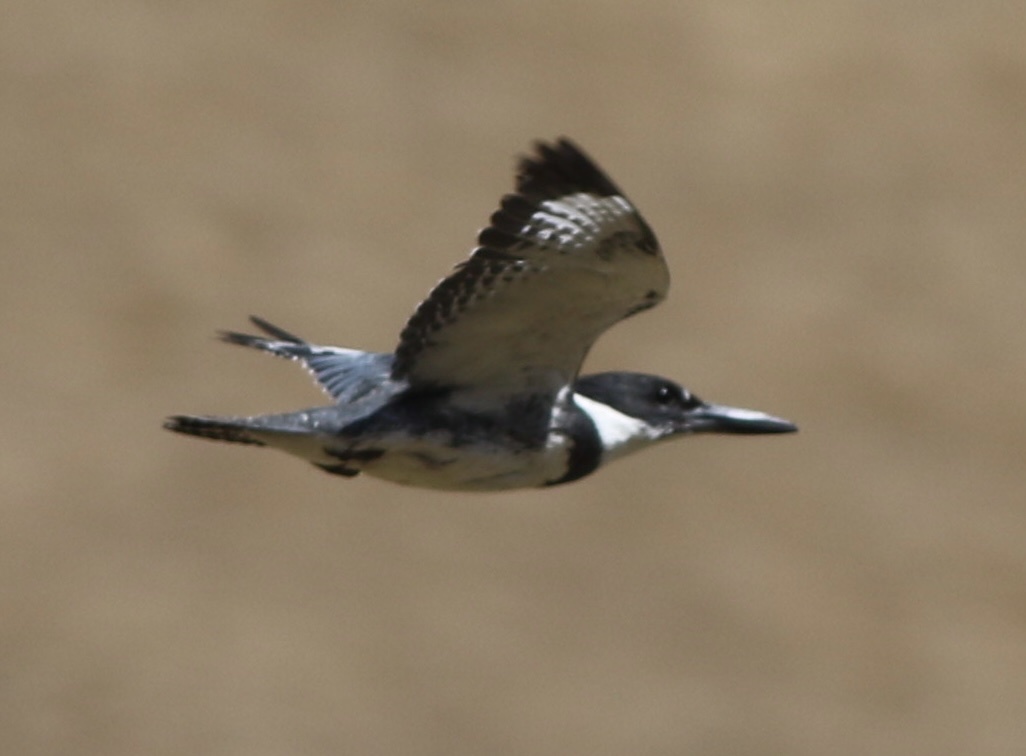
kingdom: Animalia
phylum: Chordata
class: Aves
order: Coraciiformes
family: Alcedinidae
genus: Megaceryle
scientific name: Megaceryle alcyon
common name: Belted kingfisher
